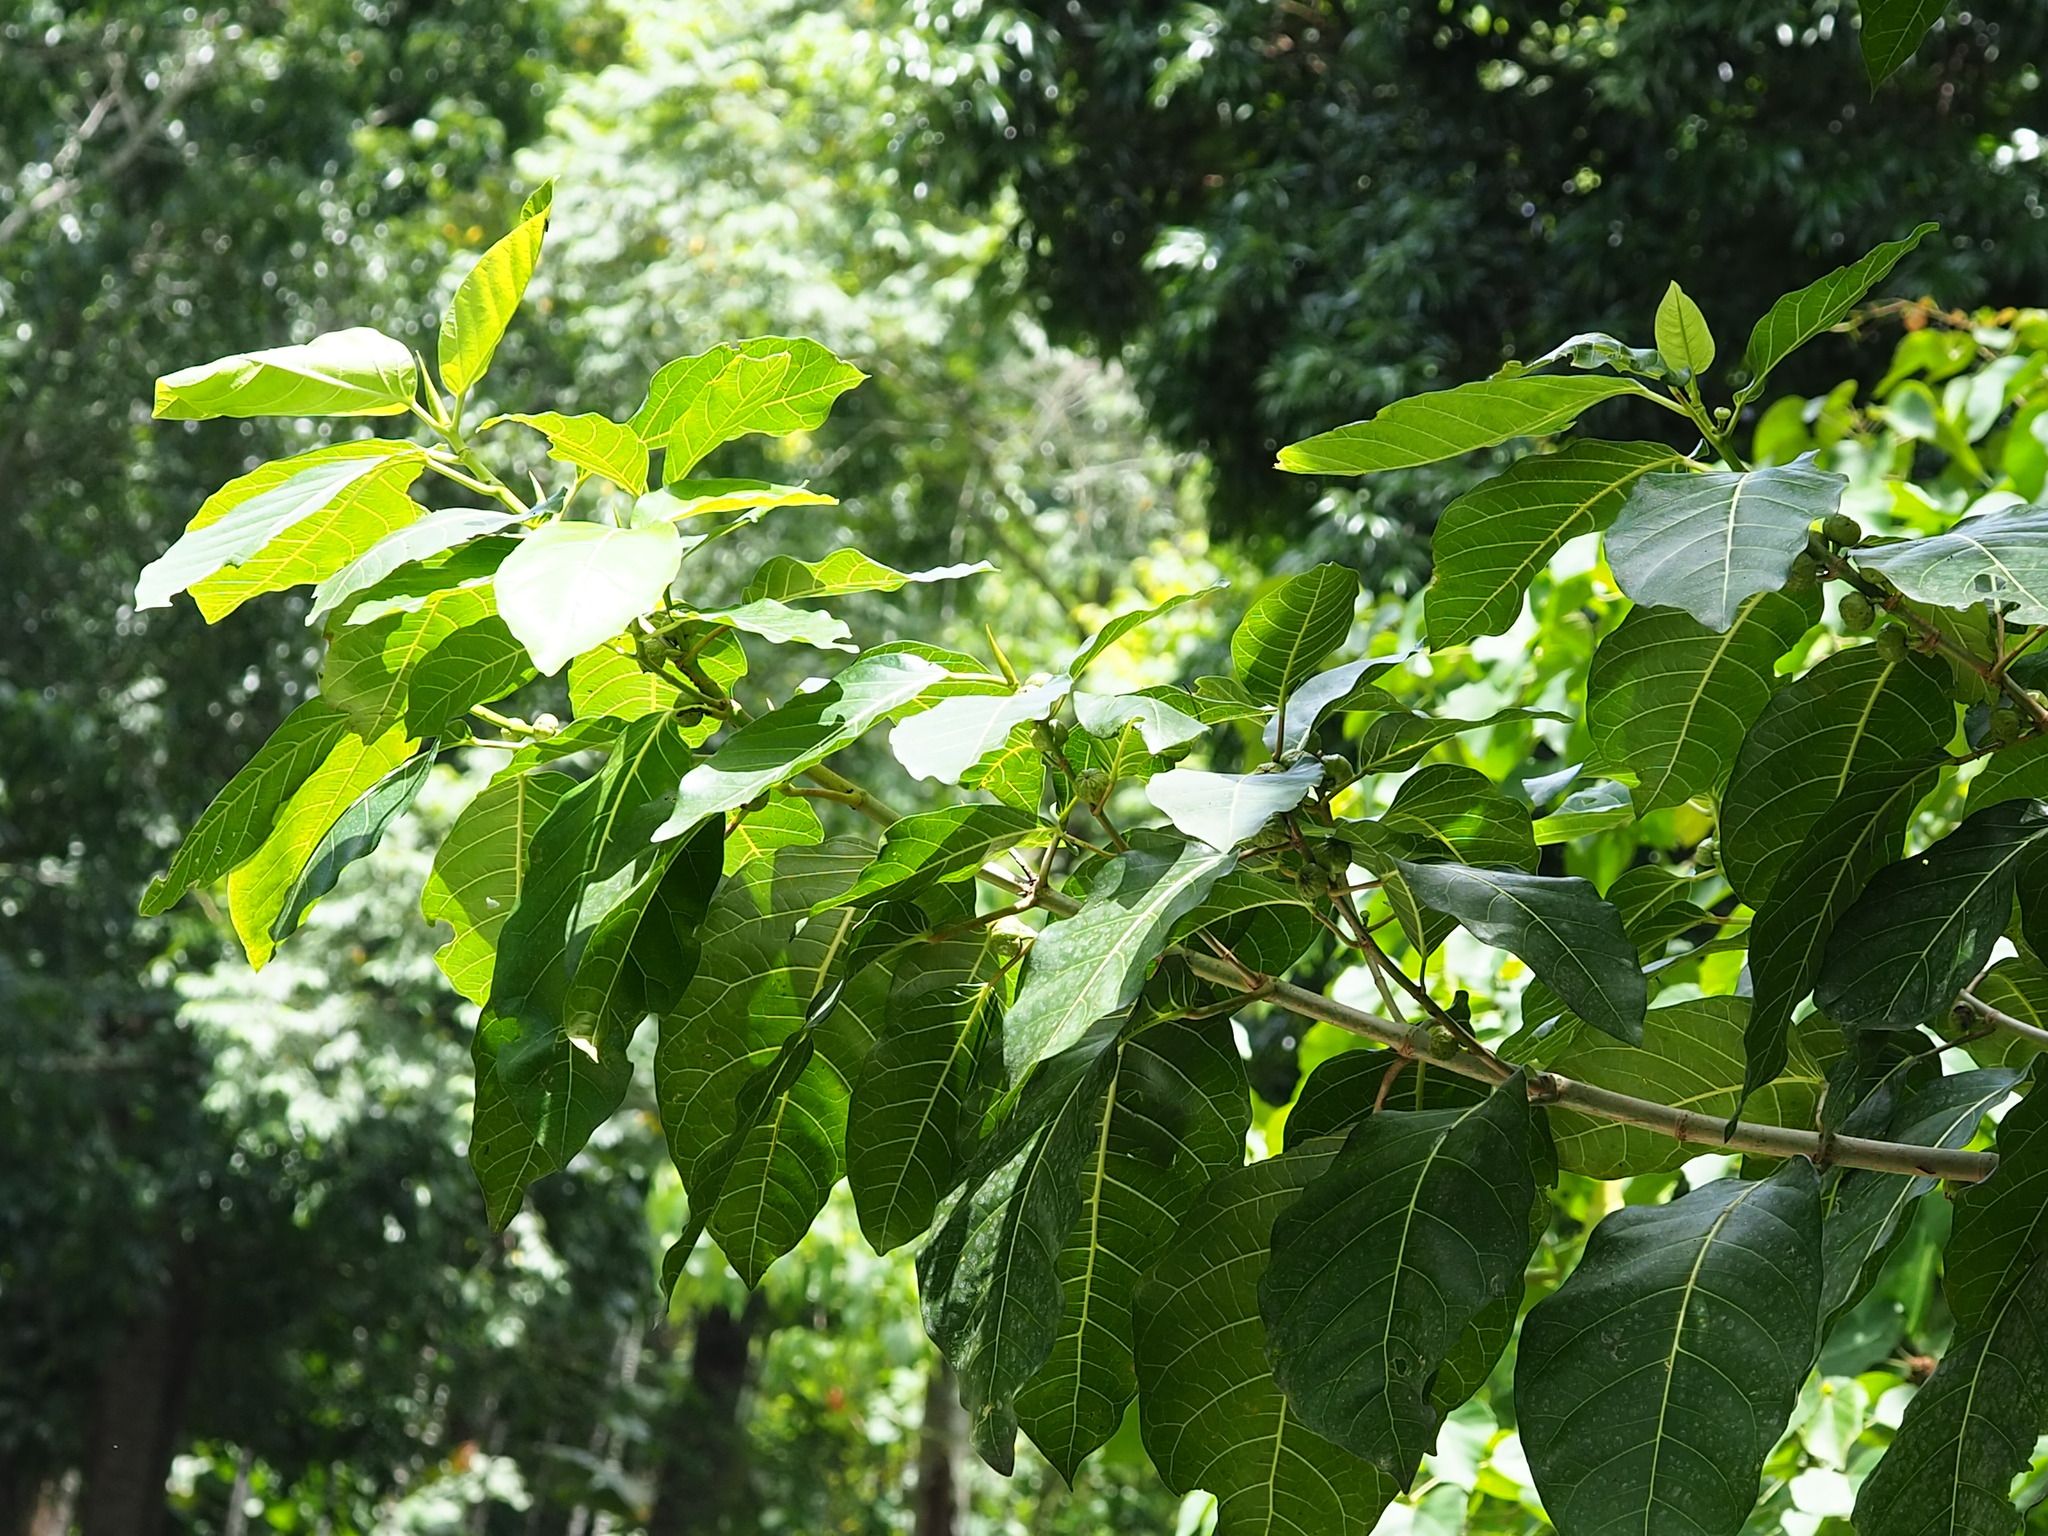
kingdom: Plantae
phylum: Tracheophyta
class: Magnoliopsida
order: Rosales
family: Moraceae
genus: Ficus
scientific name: Ficus septica
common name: Septic fig
